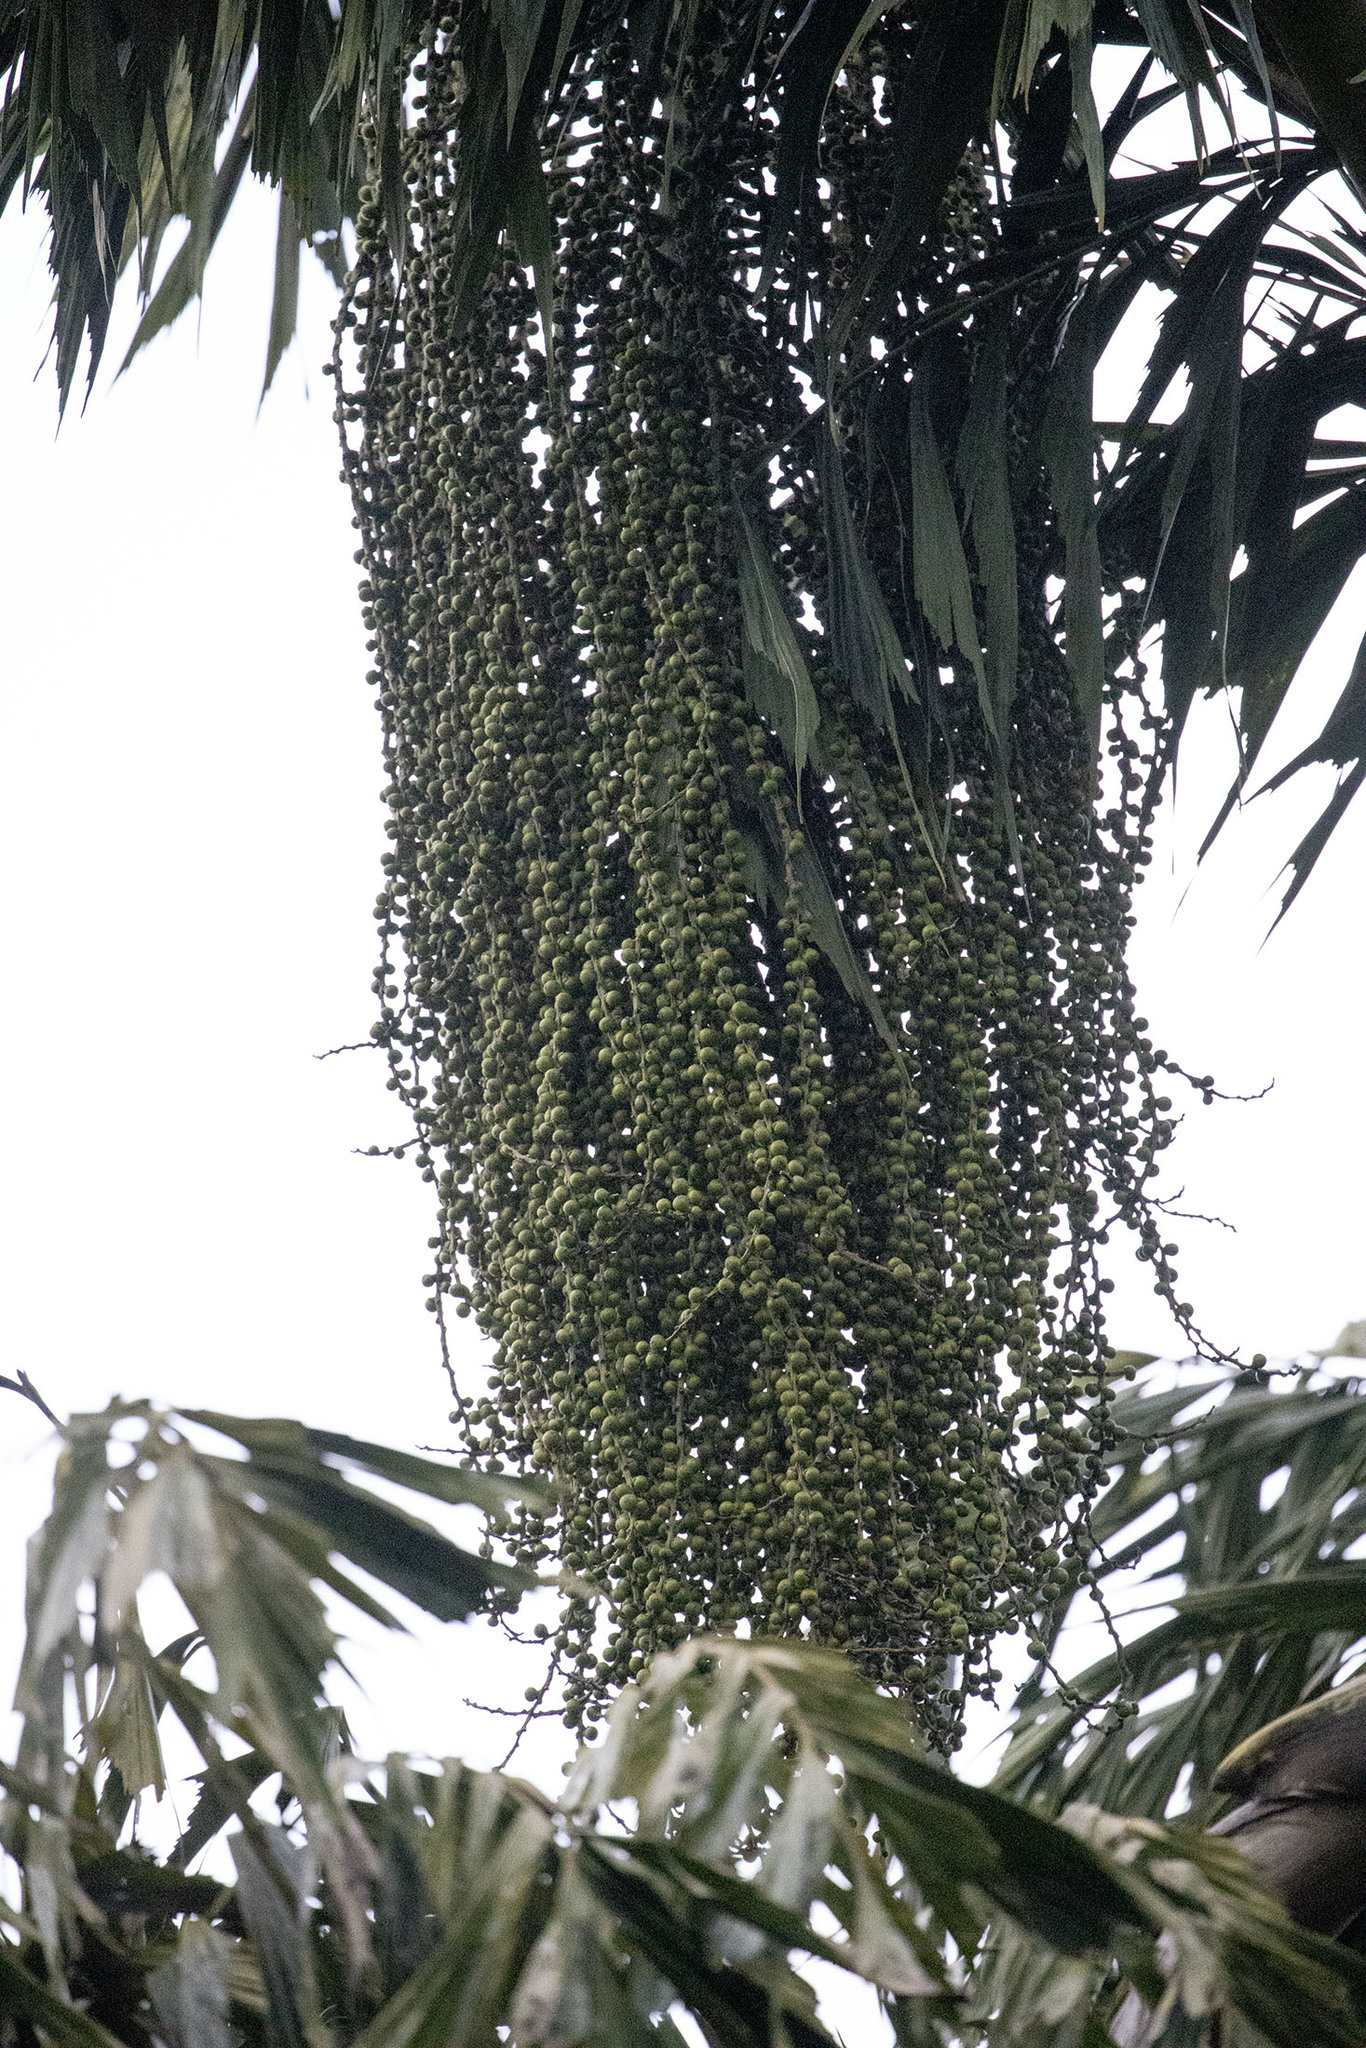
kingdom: Plantae
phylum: Tracheophyta
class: Liliopsida
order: Arecales
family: Arecaceae
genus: Caryota
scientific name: Caryota urens
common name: Jaggery palm
